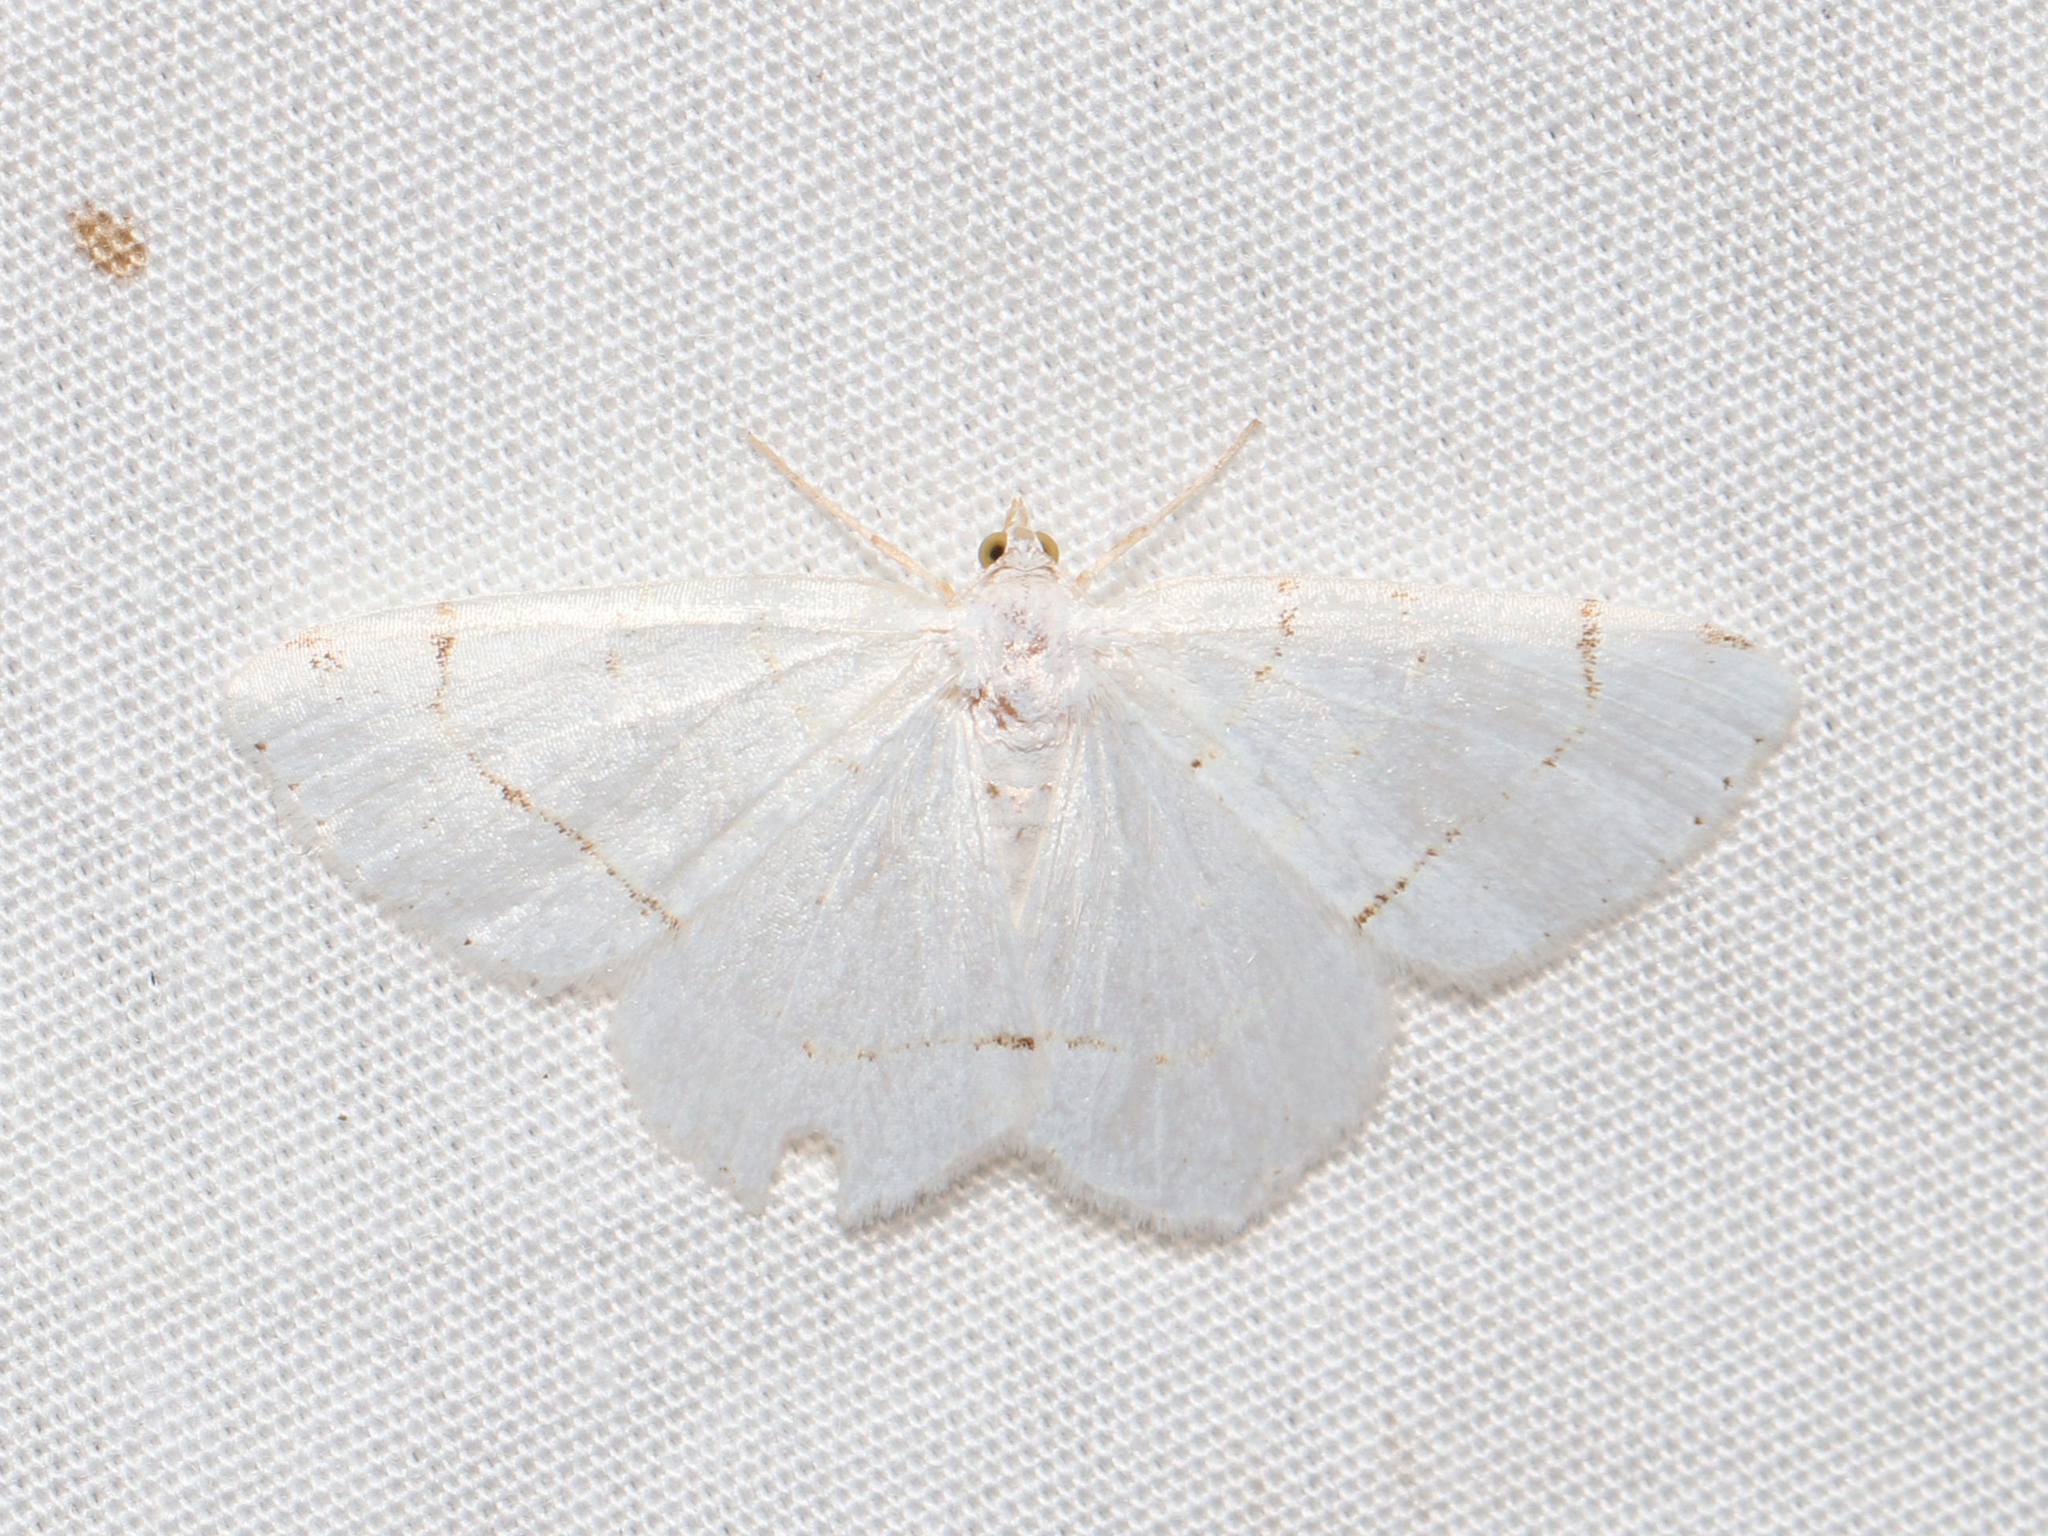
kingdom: Animalia
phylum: Arthropoda
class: Insecta
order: Lepidoptera
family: Geometridae
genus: Macaria
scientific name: Macaria pustularia
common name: Lesser maple spanworm moth
